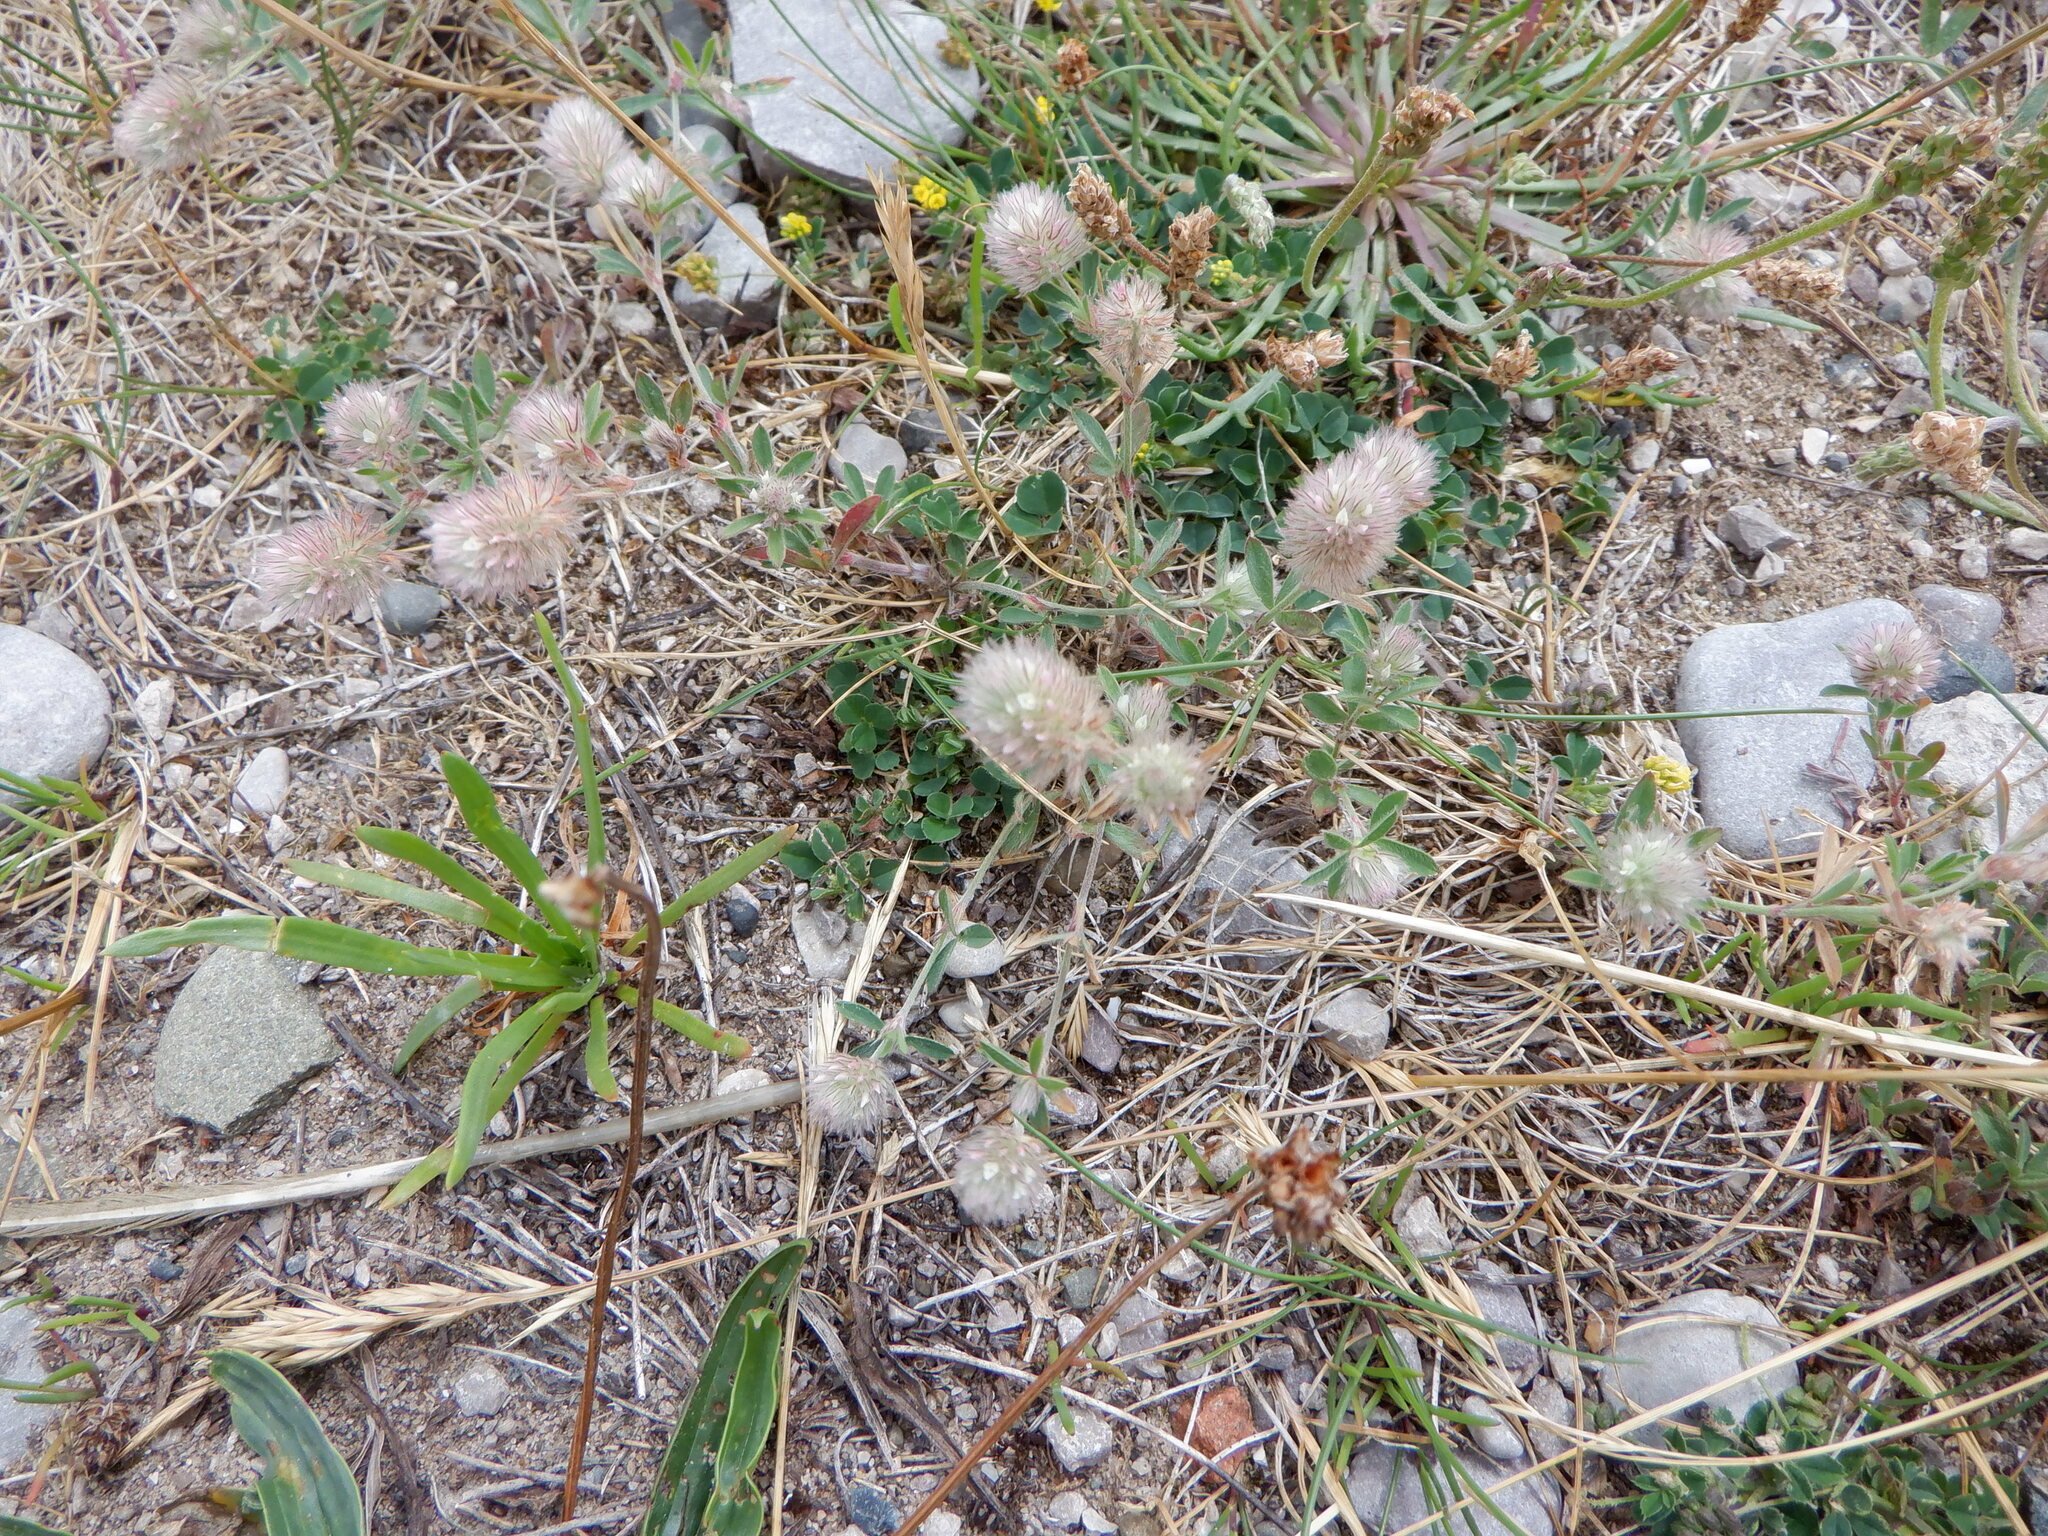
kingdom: Plantae
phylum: Tracheophyta
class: Magnoliopsida
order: Fabales
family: Fabaceae
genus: Trifolium
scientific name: Trifolium arvense
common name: Hare's-foot clover
